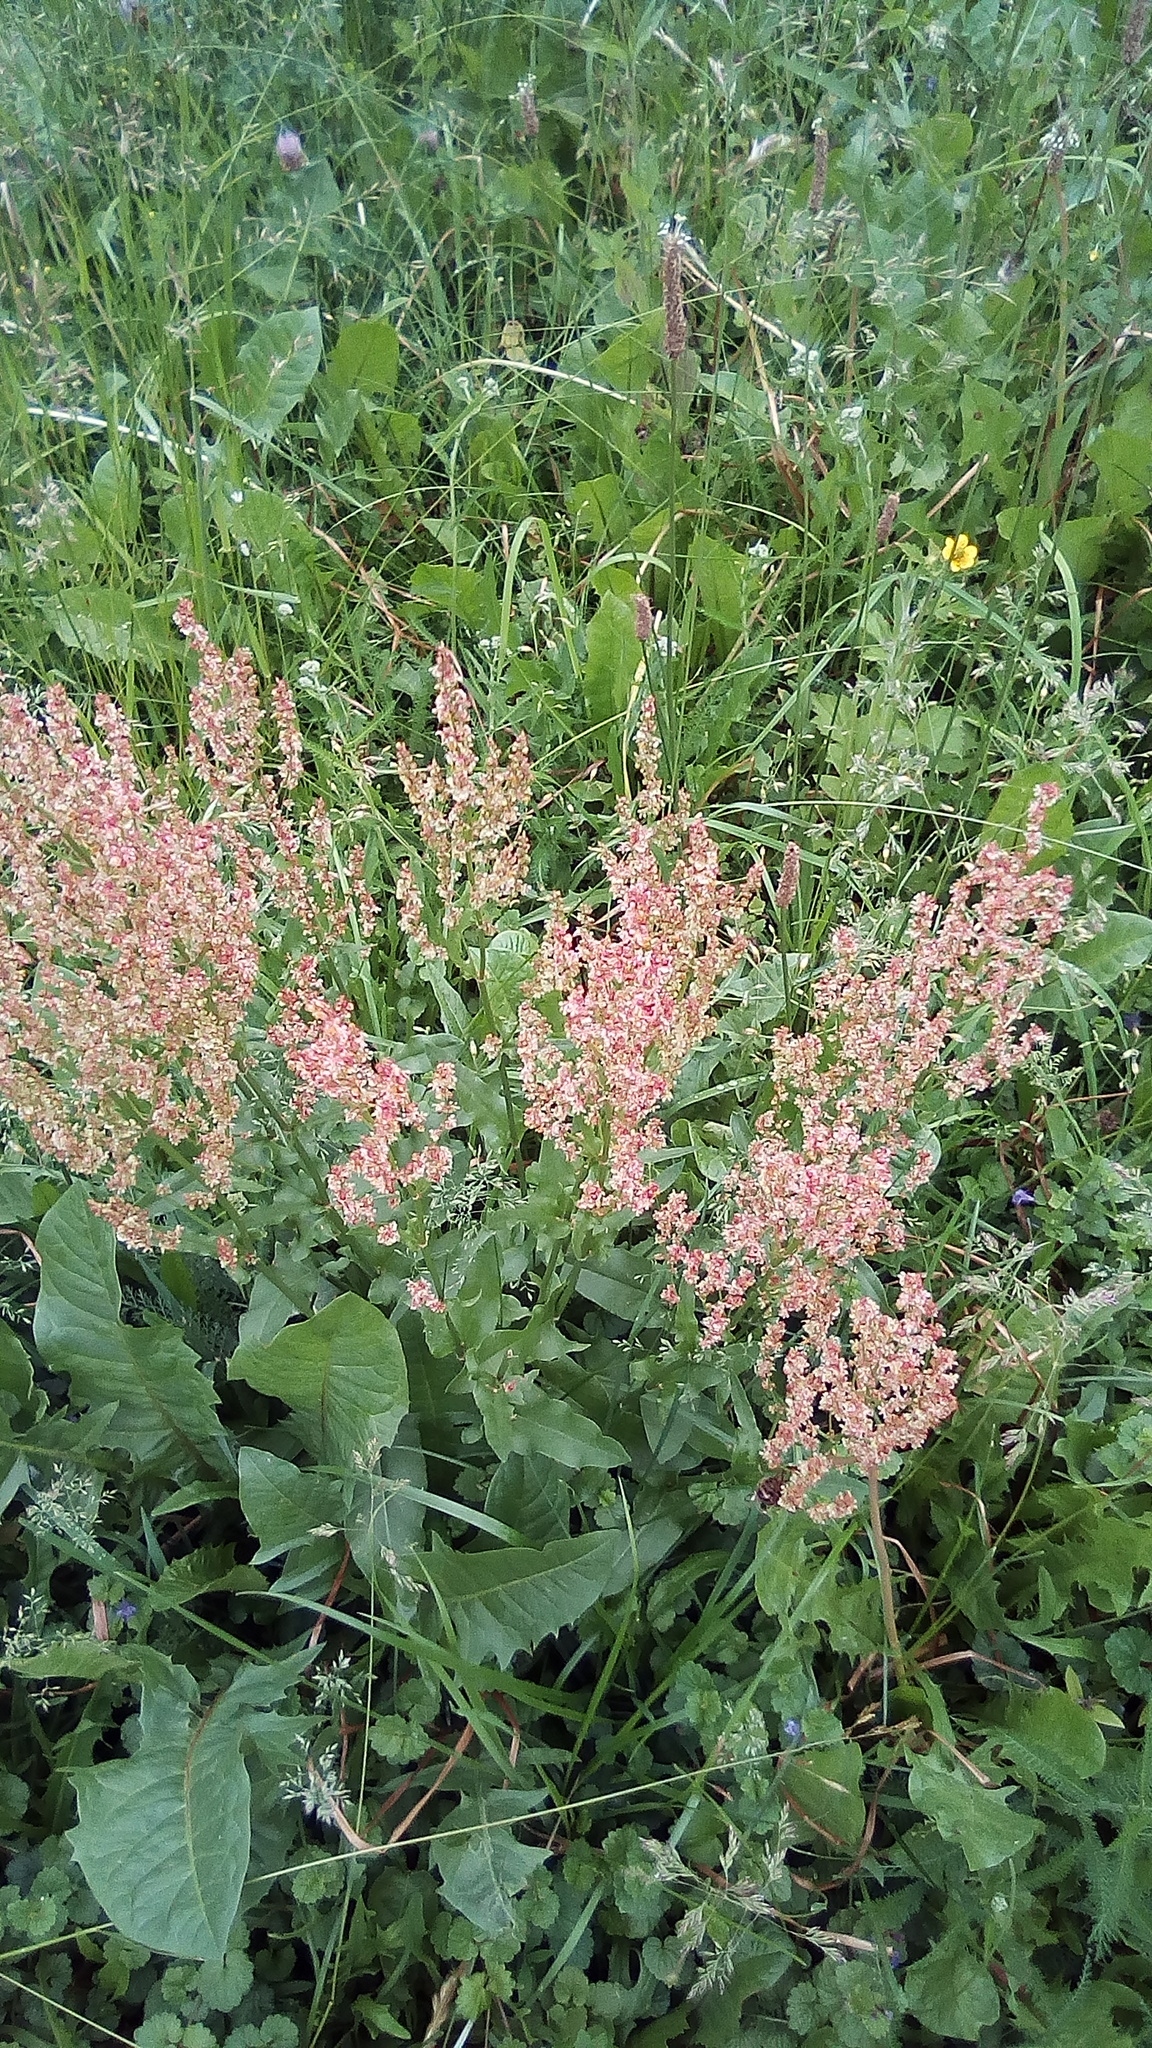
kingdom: Plantae
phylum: Tracheophyta
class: Magnoliopsida
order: Caryophyllales
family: Polygonaceae
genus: Rumex
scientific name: Rumex thyrsiflorus
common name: Garden sorrel
